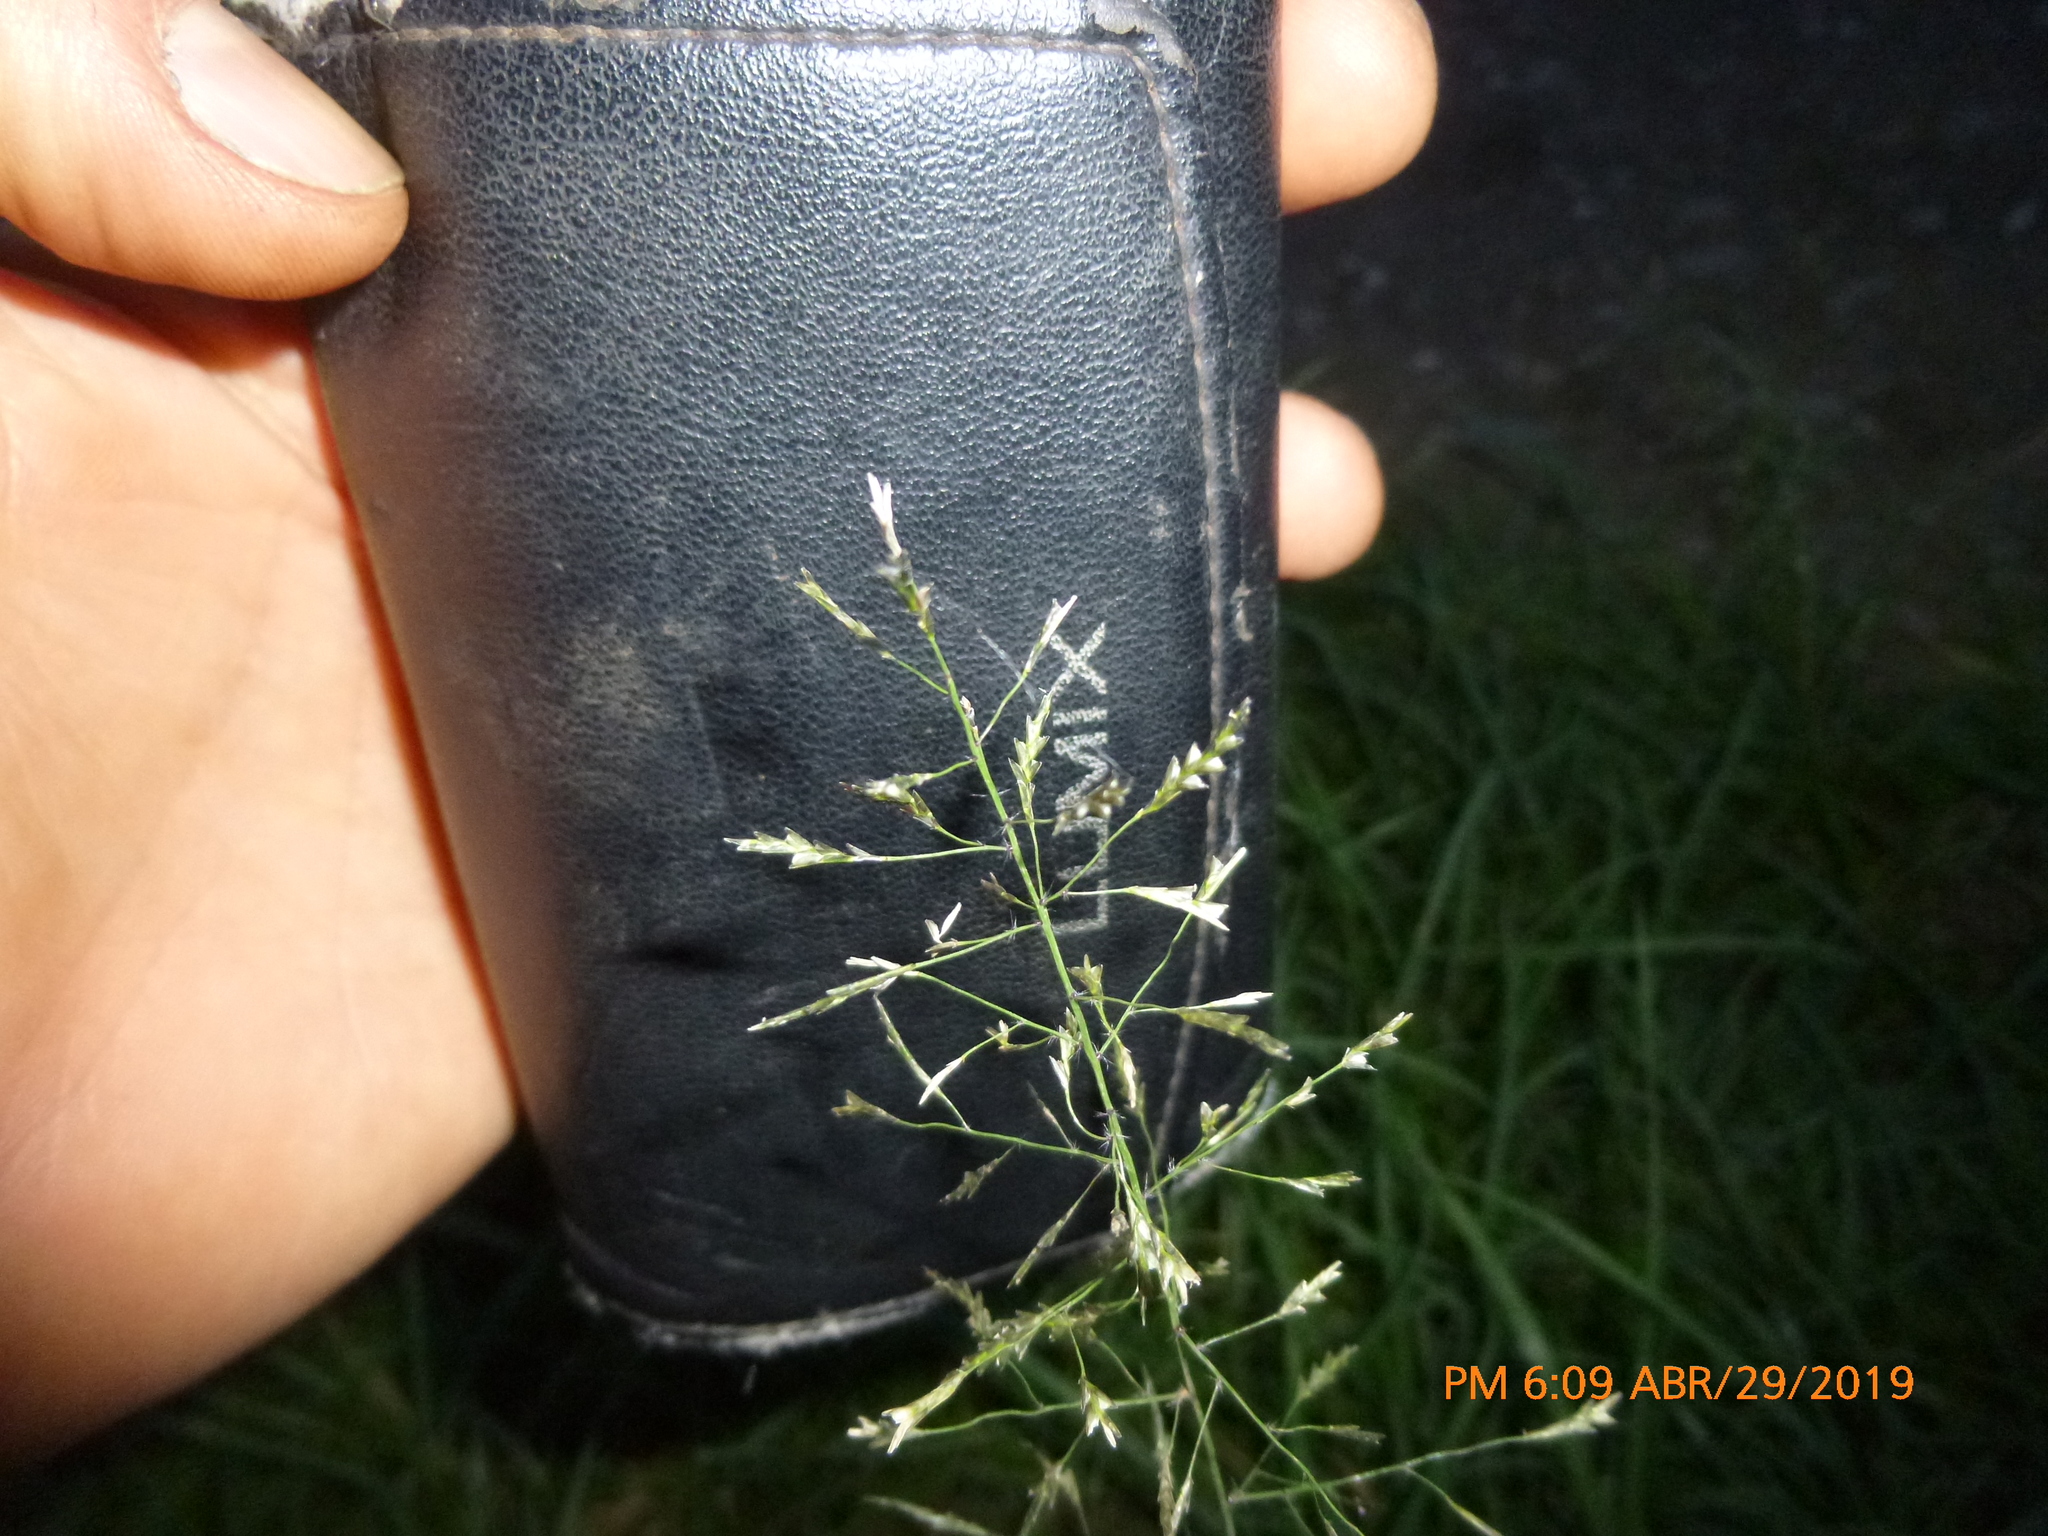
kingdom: Plantae
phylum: Tracheophyta
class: Liliopsida
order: Poales
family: Poaceae
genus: Eragrostis
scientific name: Eragrostis pilosa
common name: Indian lovegrass
